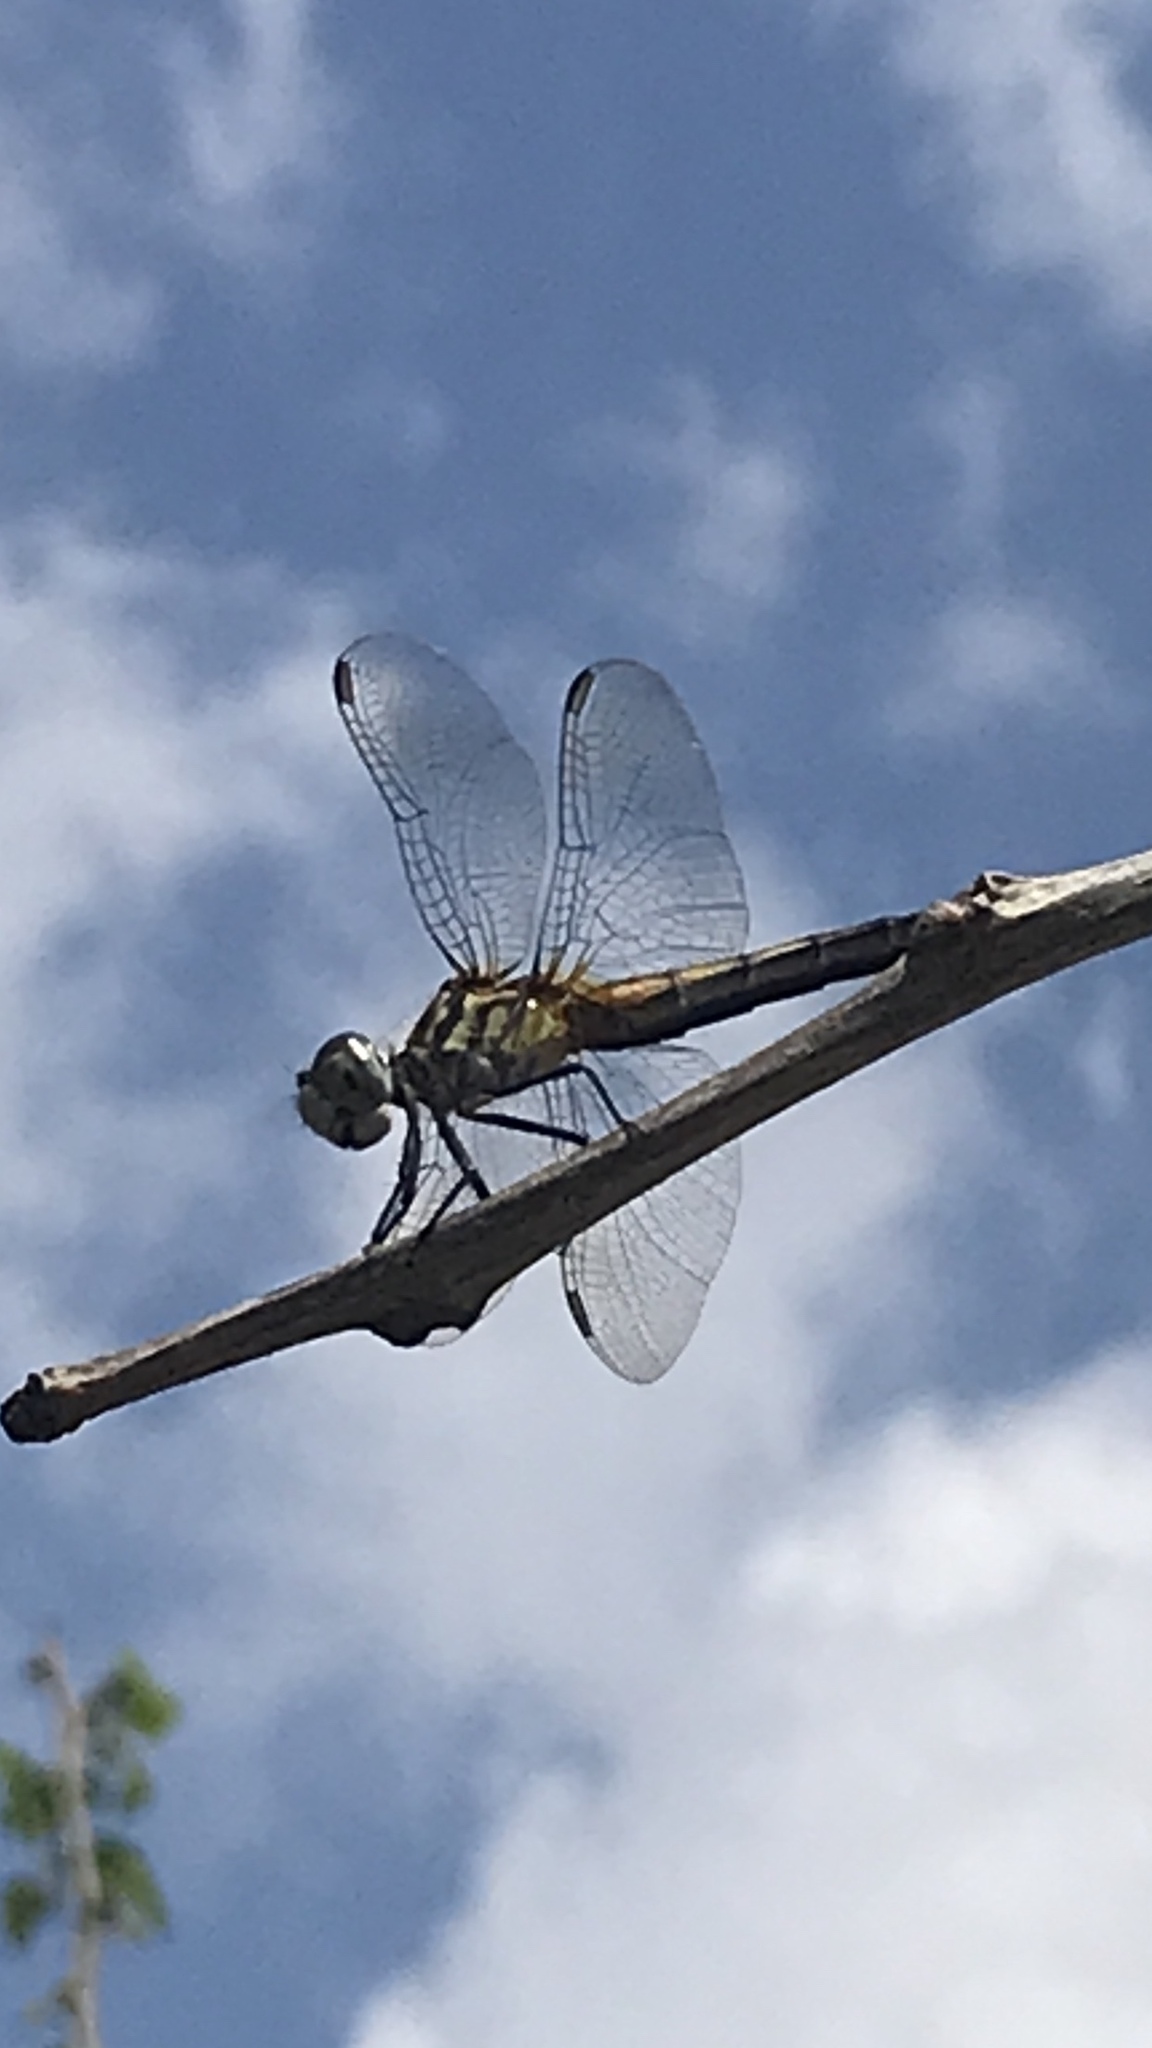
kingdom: Animalia
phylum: Arthropoda
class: Insecta
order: Odonata
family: Libellulidae
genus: Pachydiplax
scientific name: Pachydiplax longipennis
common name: Blue dasher
